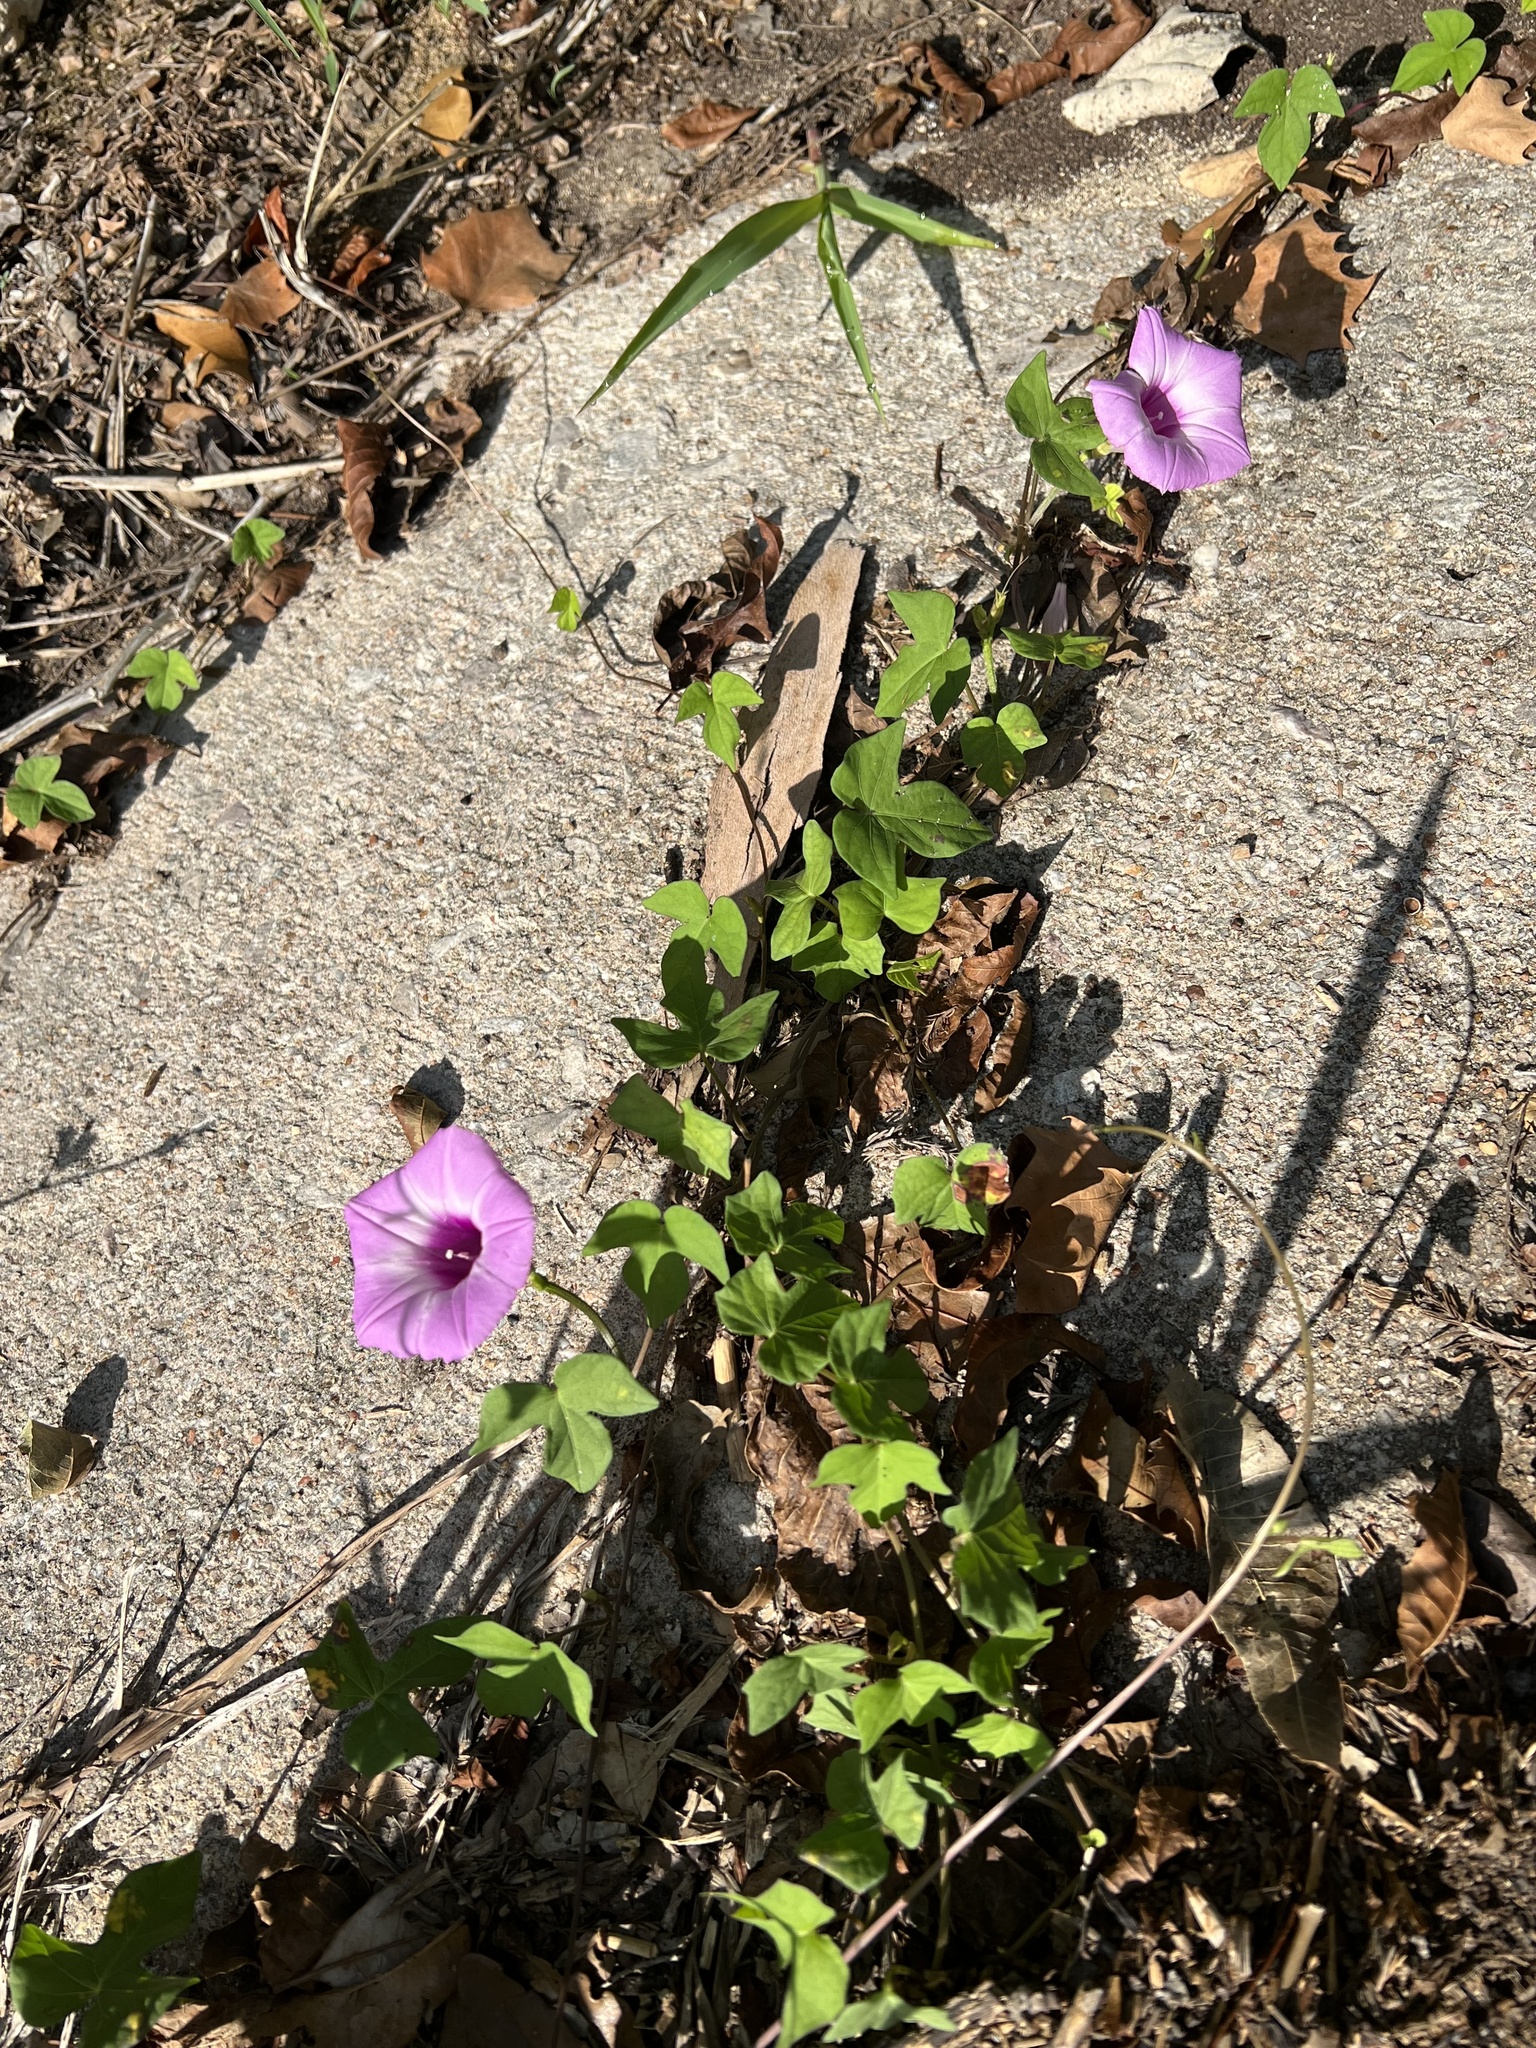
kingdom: Plantae
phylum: Tracheophyta
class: Magnoliopsida
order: Solanales
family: Convolvulaceae
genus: Ipomoea
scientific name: Ipomoea cordatotriloba
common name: Cotton morning glory
